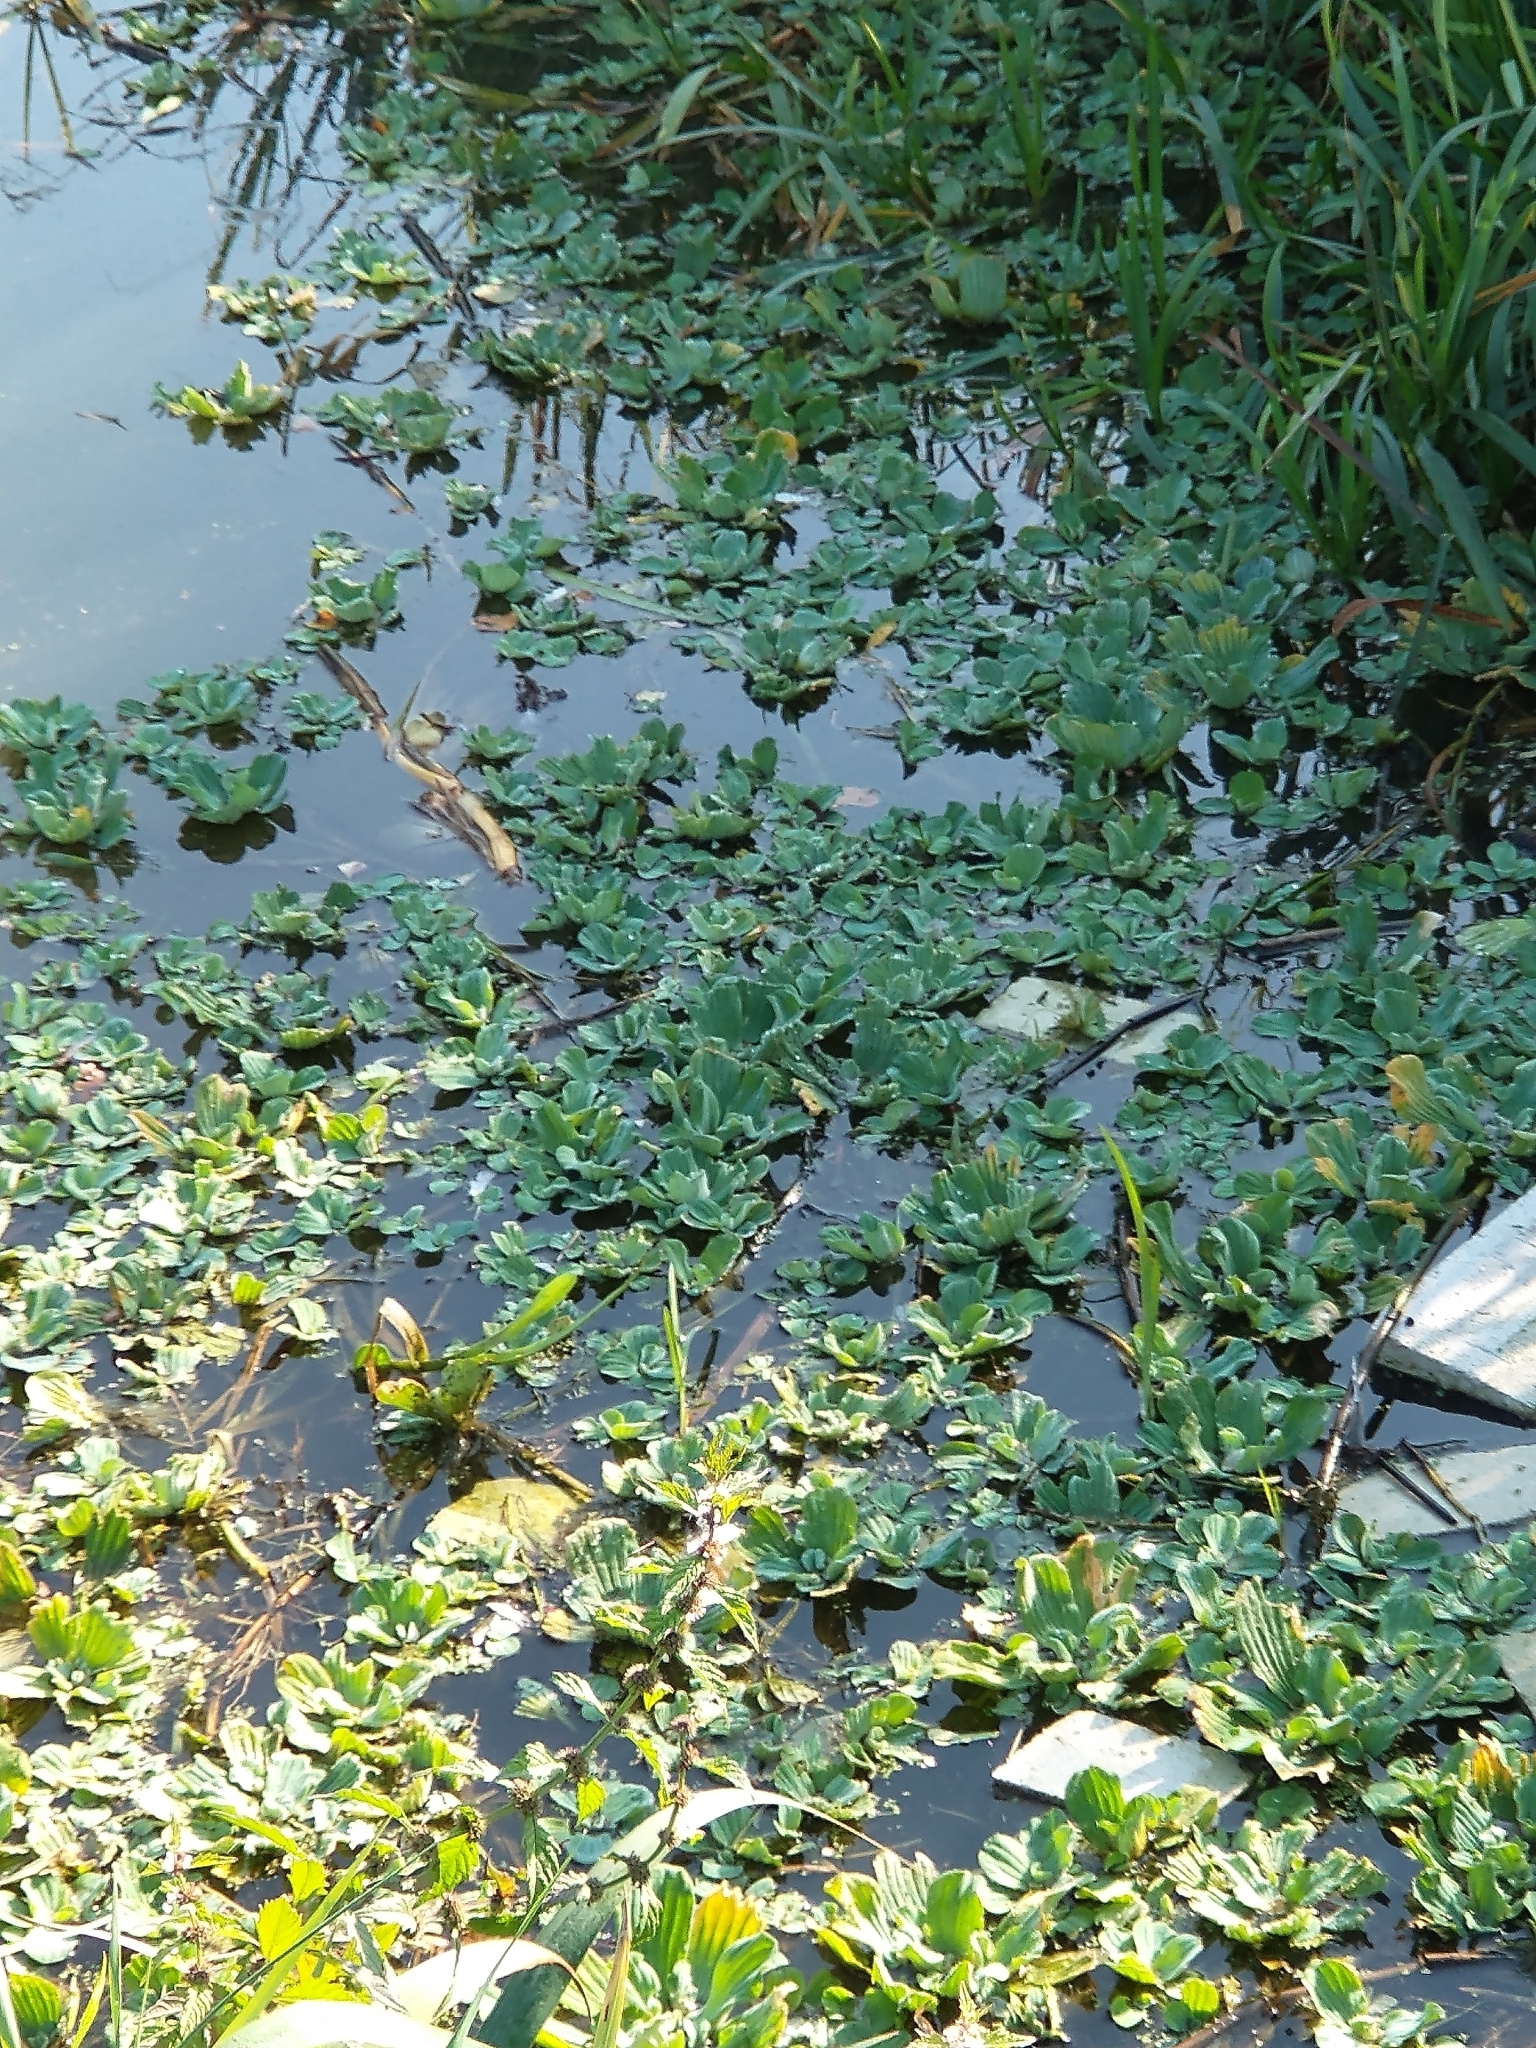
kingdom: Plantae
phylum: Tracheophyta
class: Liliopsida
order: Alismatales
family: Araceae
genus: Pistia
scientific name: Pistia stratiotes
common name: Water lettuce
